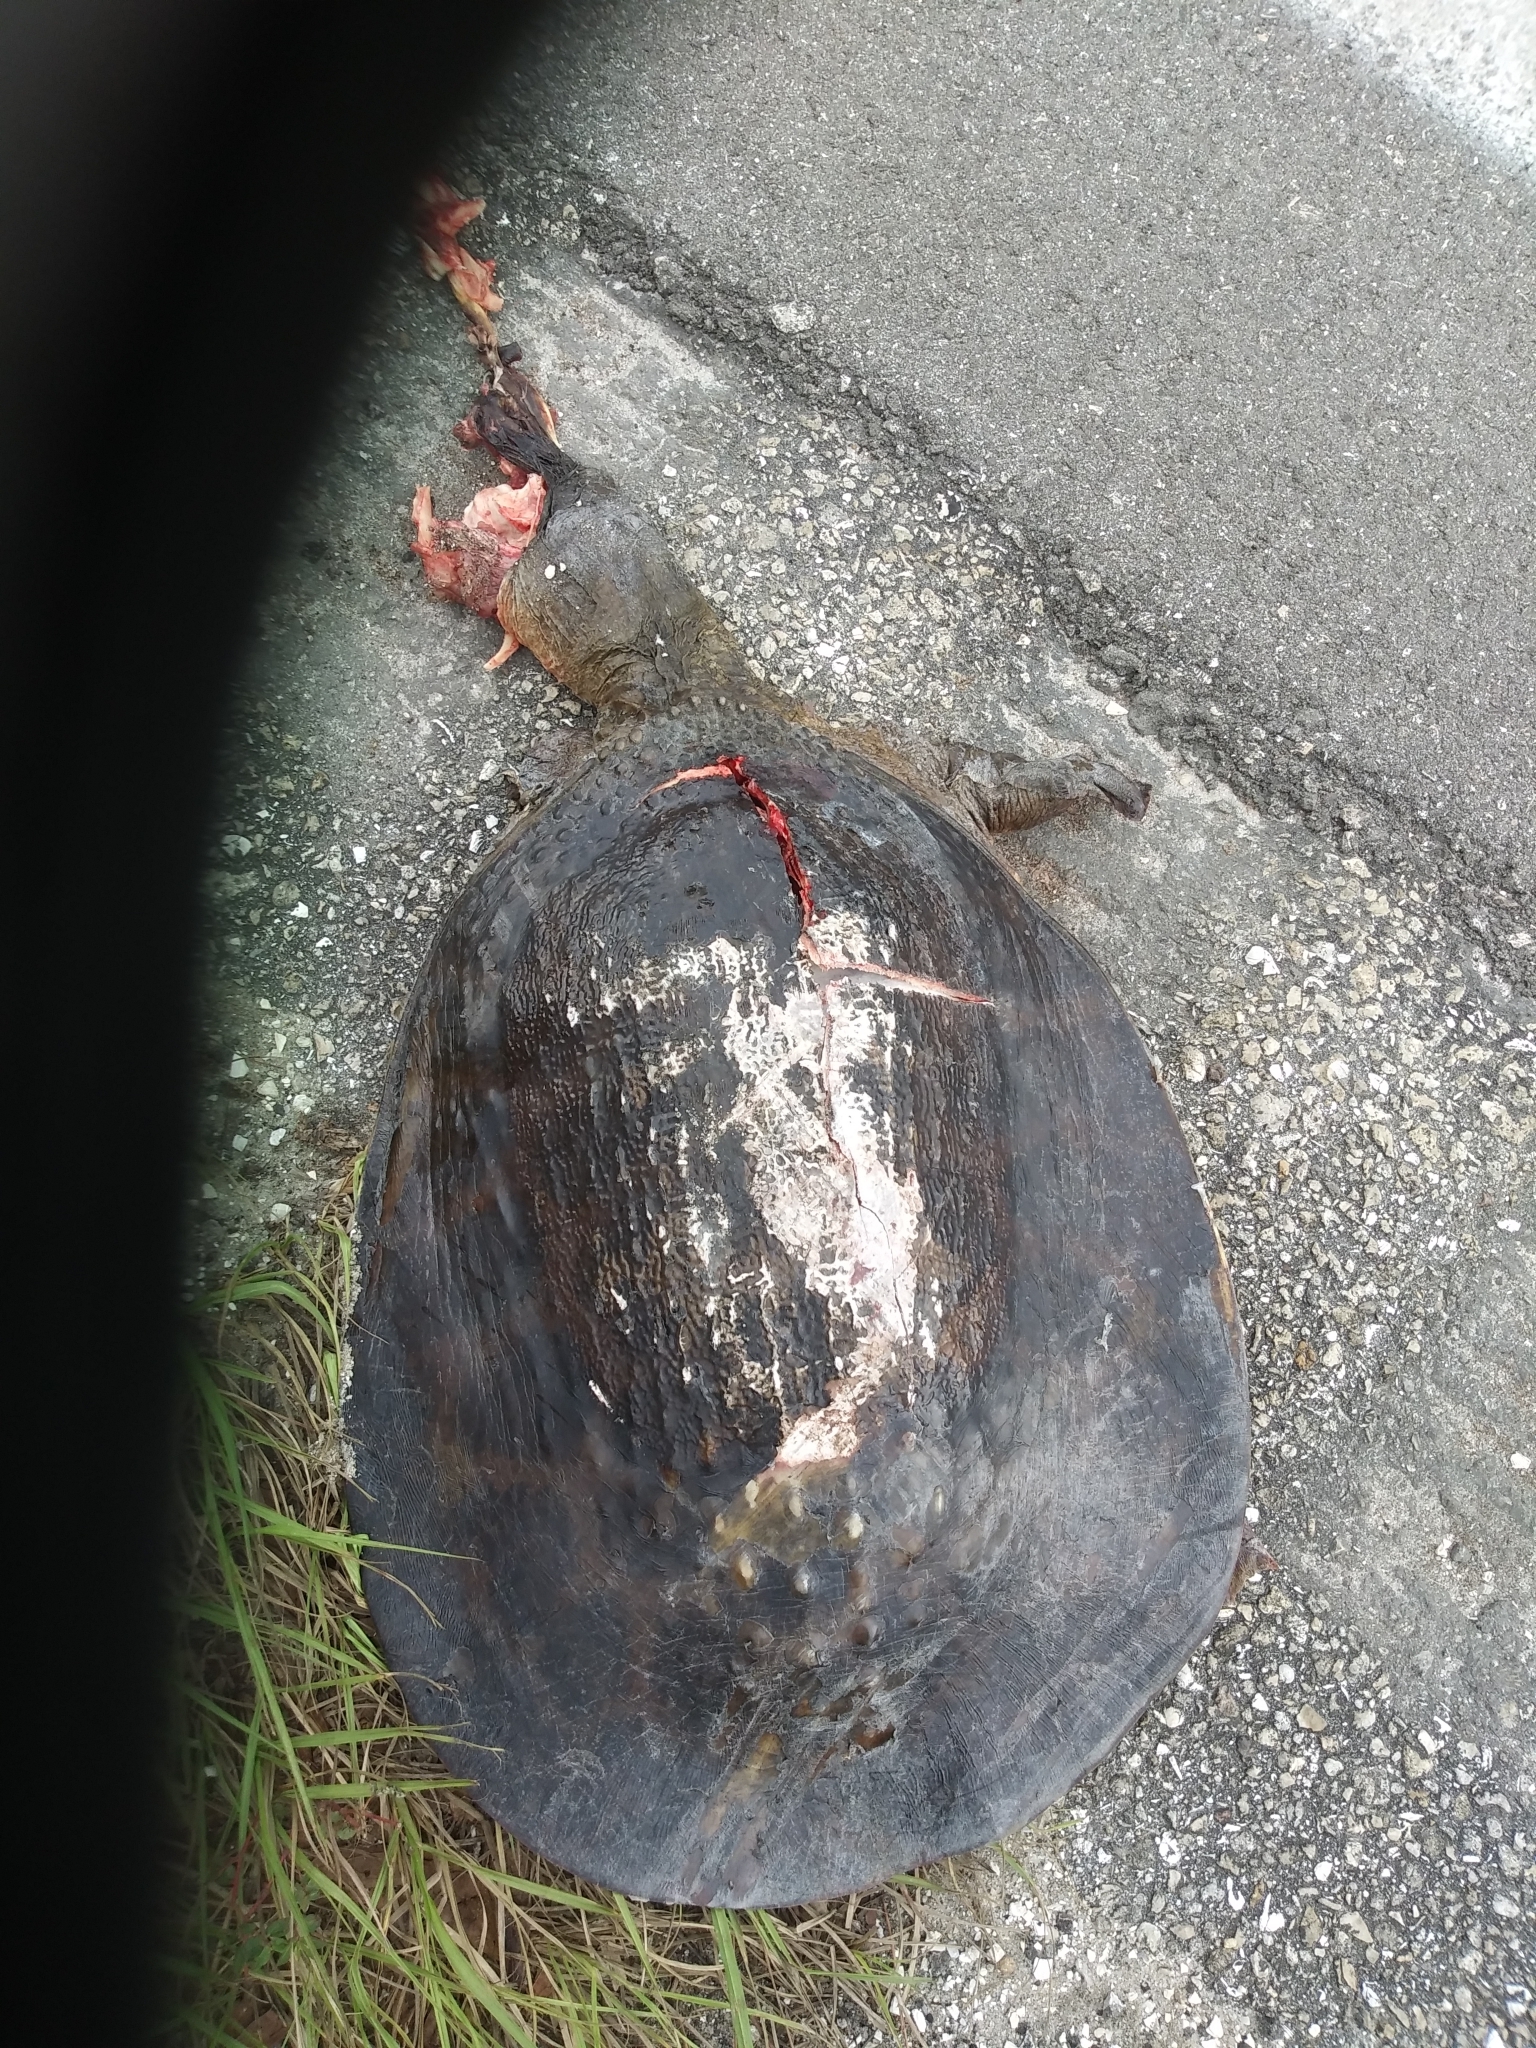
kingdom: Animalia
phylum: Chordata
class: Testudines
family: Trionychidae
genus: Apalone
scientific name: Apalone ferox
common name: Florida softshell turtle
